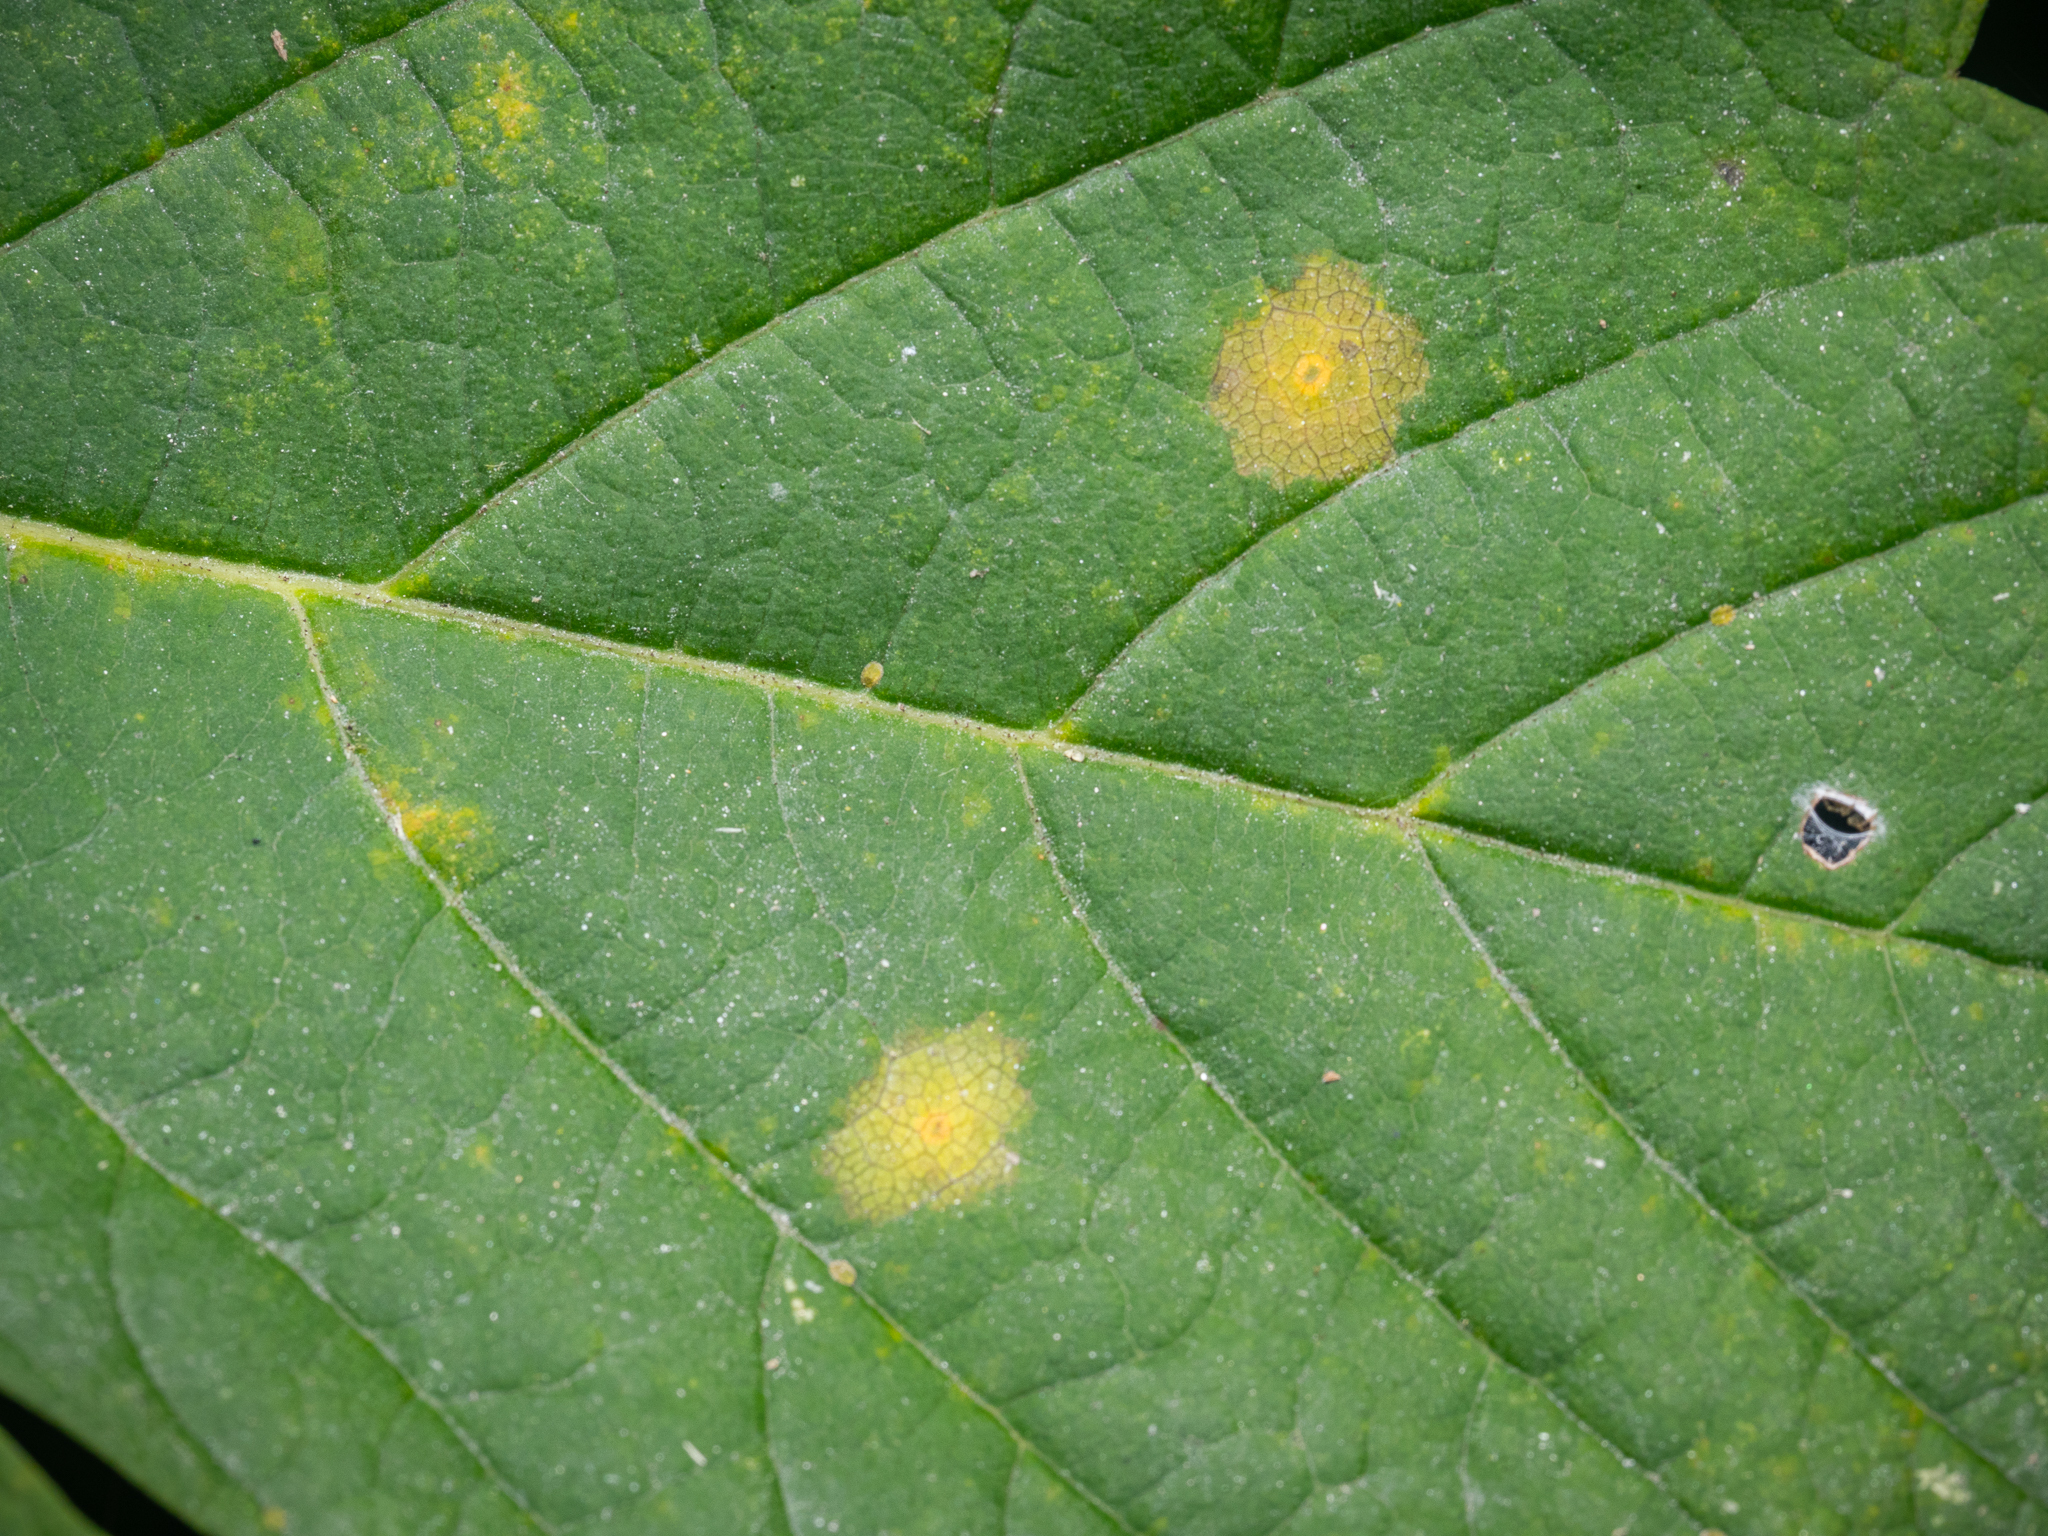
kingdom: Animalia
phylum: Arthropoda
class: Insecta
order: Diptera
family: Cecidomyiidae
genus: Drisina
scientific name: Drisina glutinosa
